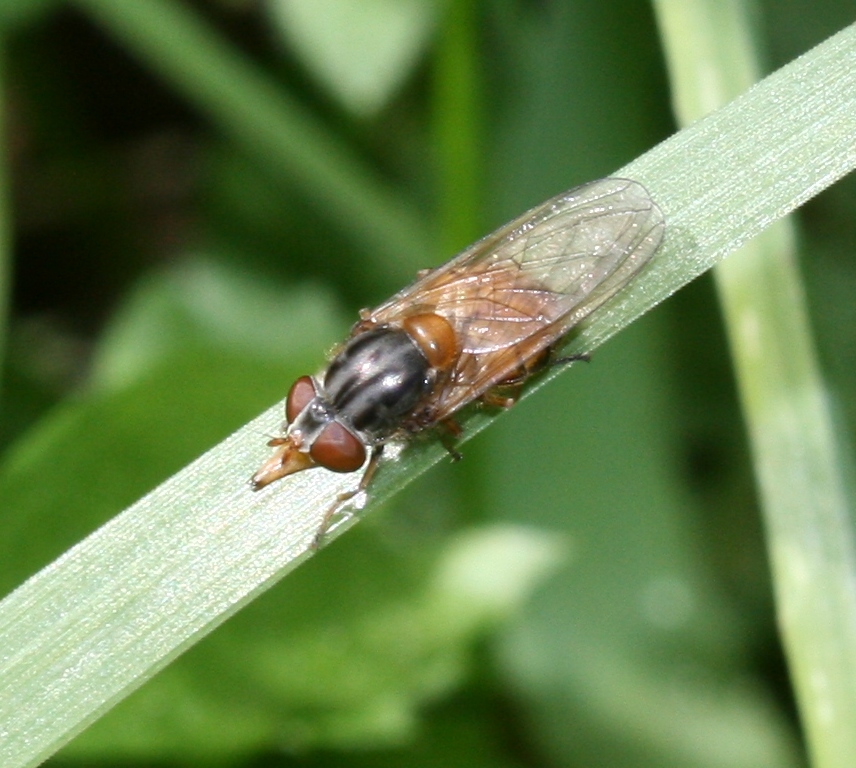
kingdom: Animalia
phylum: Arthropoda
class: Insecta
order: Diptera
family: Syrphidae
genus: Rhingia
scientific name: Rhingia campestris
